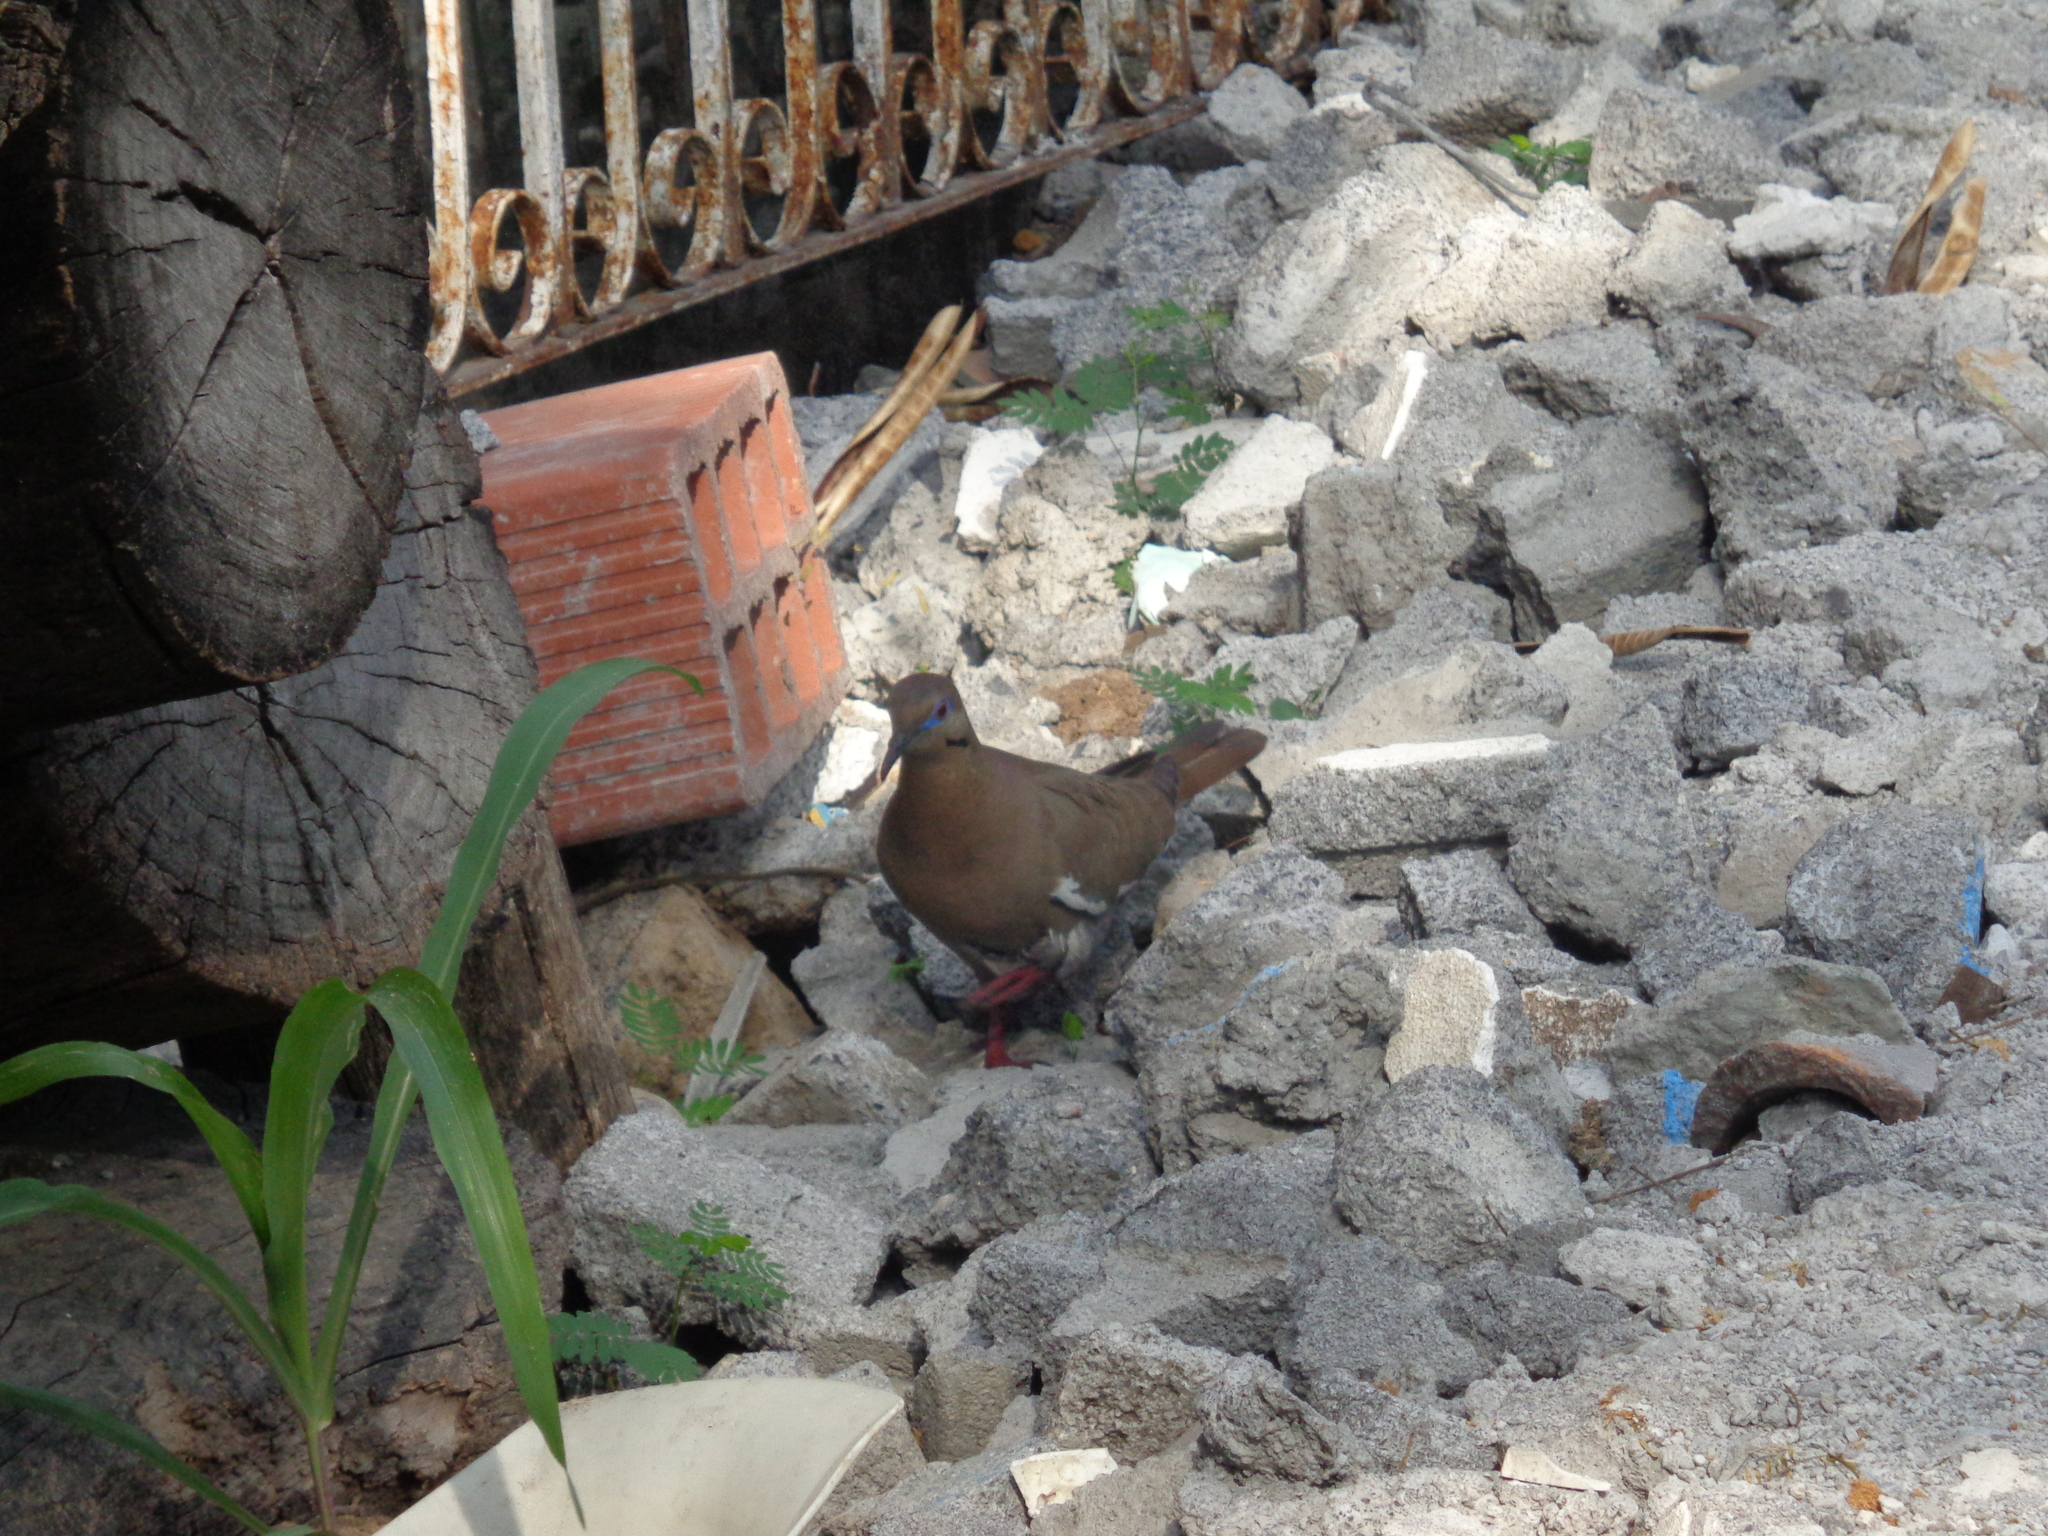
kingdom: Animalia
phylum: Chordata
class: Aves
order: Columbiformes
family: Columbidae
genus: Zenaida
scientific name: Zenaida asiatica
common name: White-winged dove
